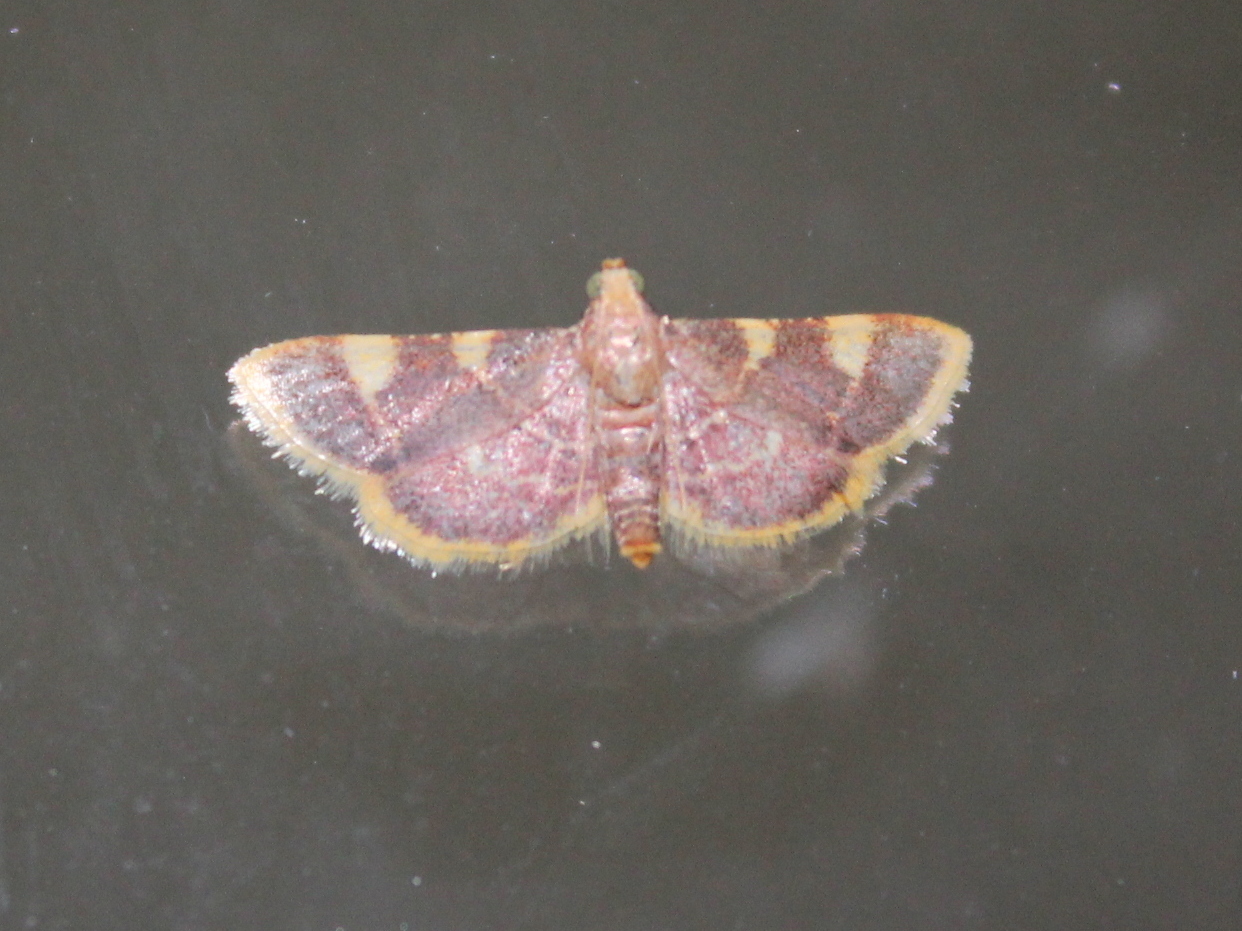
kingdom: Animalia
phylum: Arthropoda
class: Insecta
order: Lepidoptera
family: Pyralidae
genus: Hypsopygia
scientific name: Hypsopygia costalis
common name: Gold triangle
